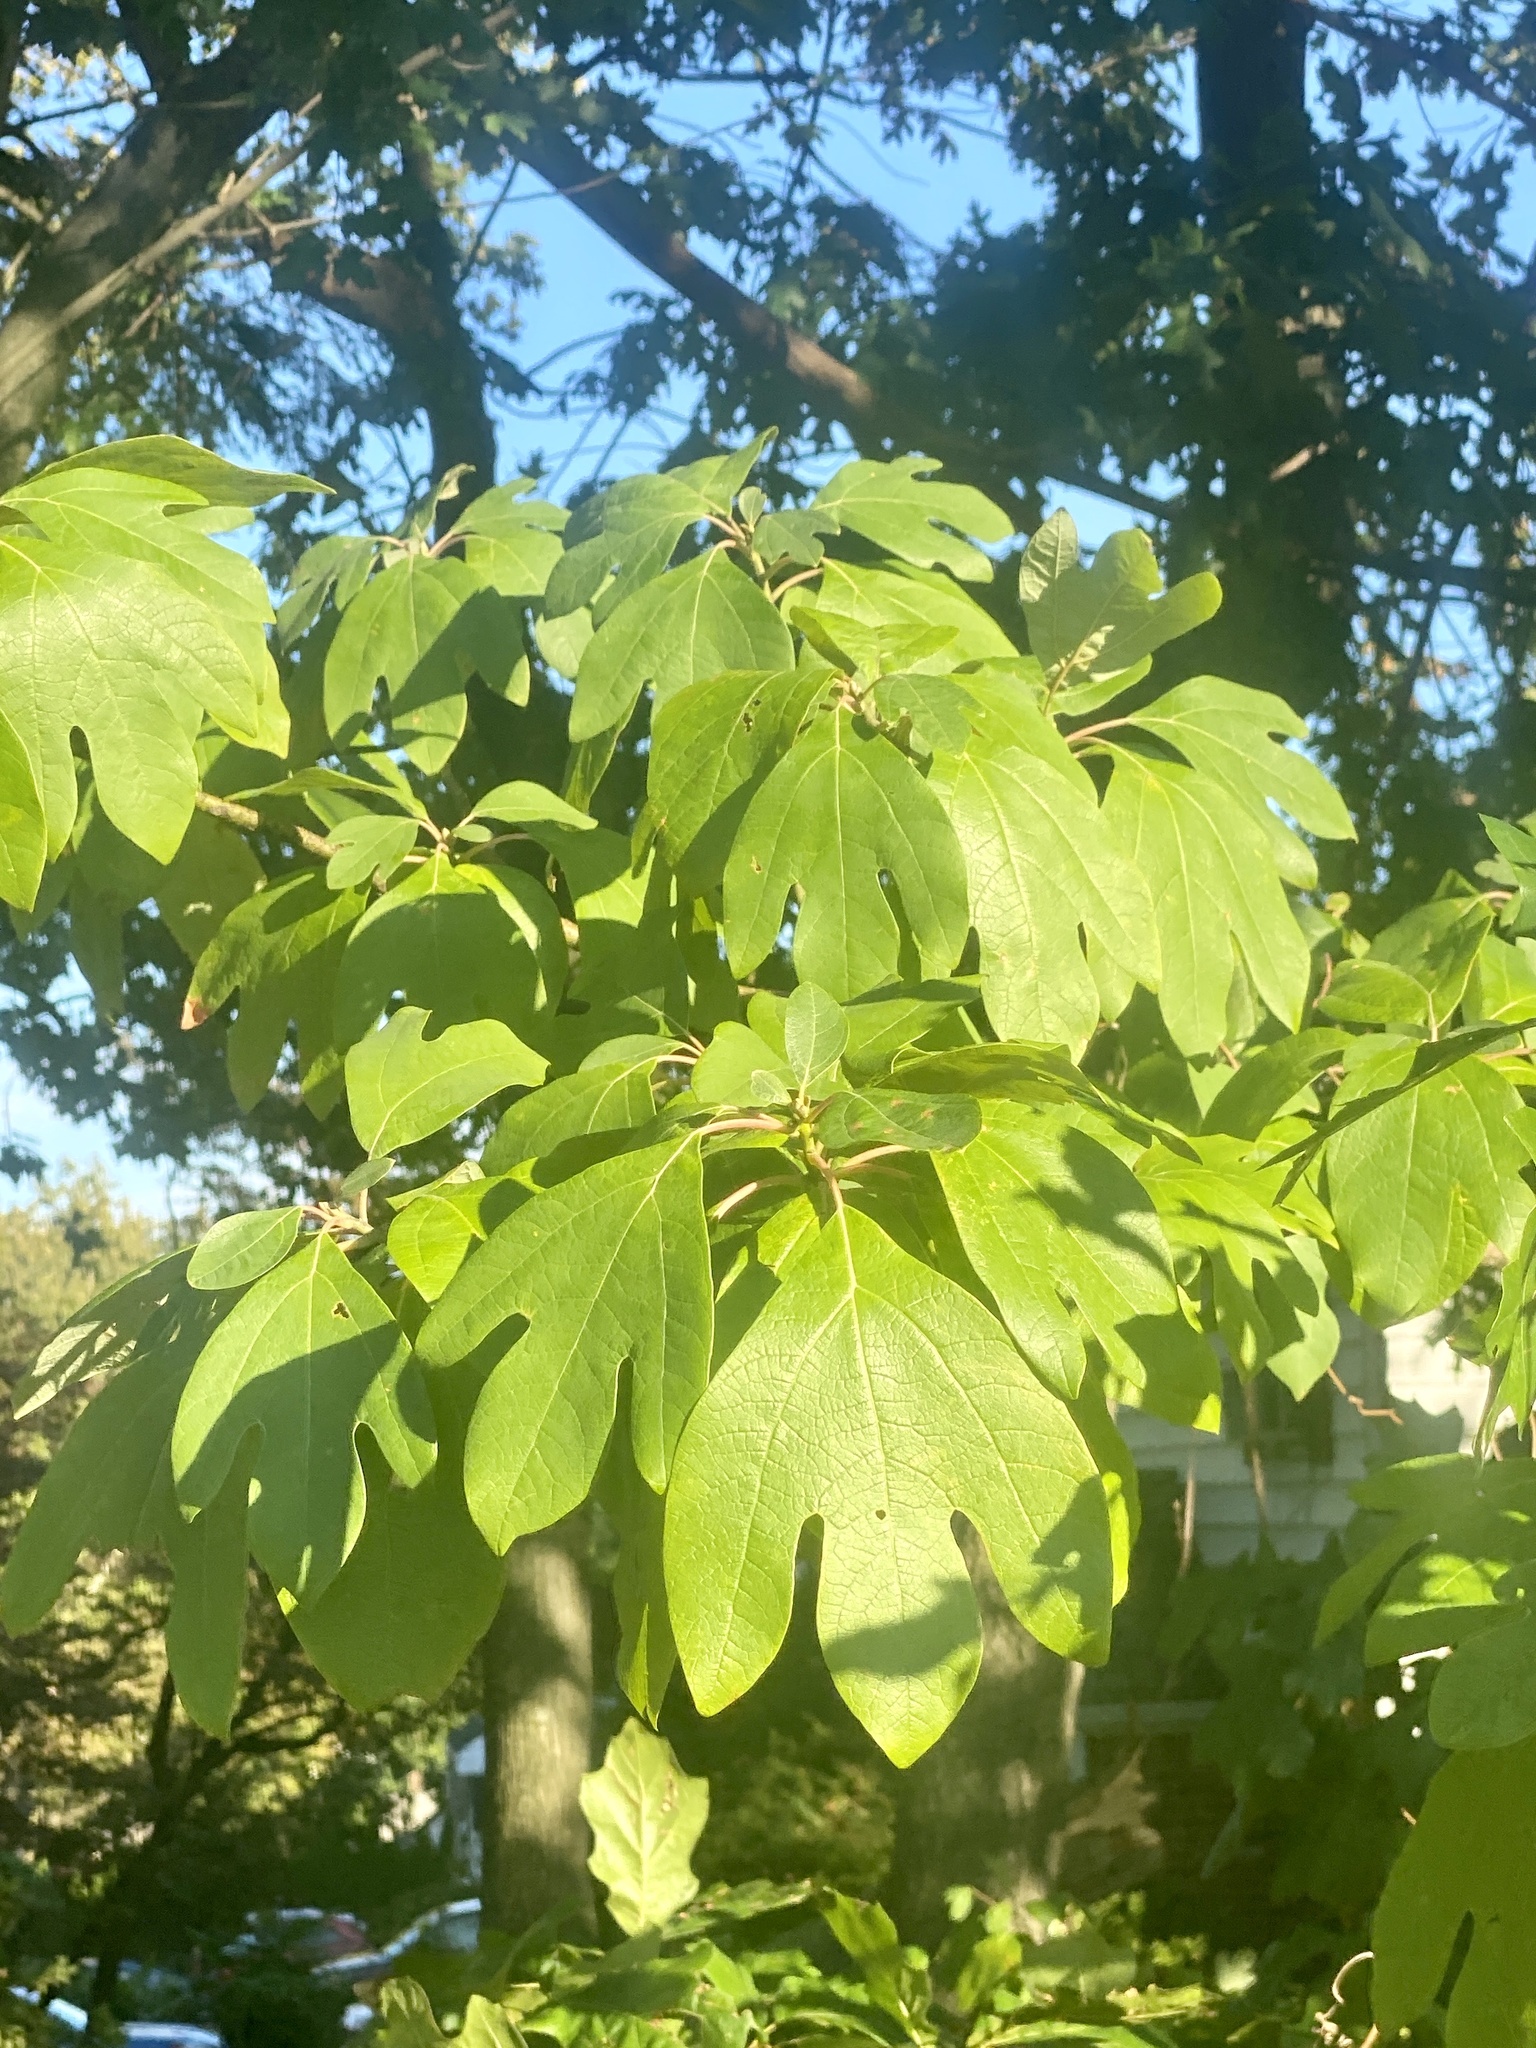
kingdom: Plantae
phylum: Tracheophyta
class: Magnoliopsida
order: Laurales
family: Lauraceae
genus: Sassafras
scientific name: Sassafras albidum
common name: Sassafras
